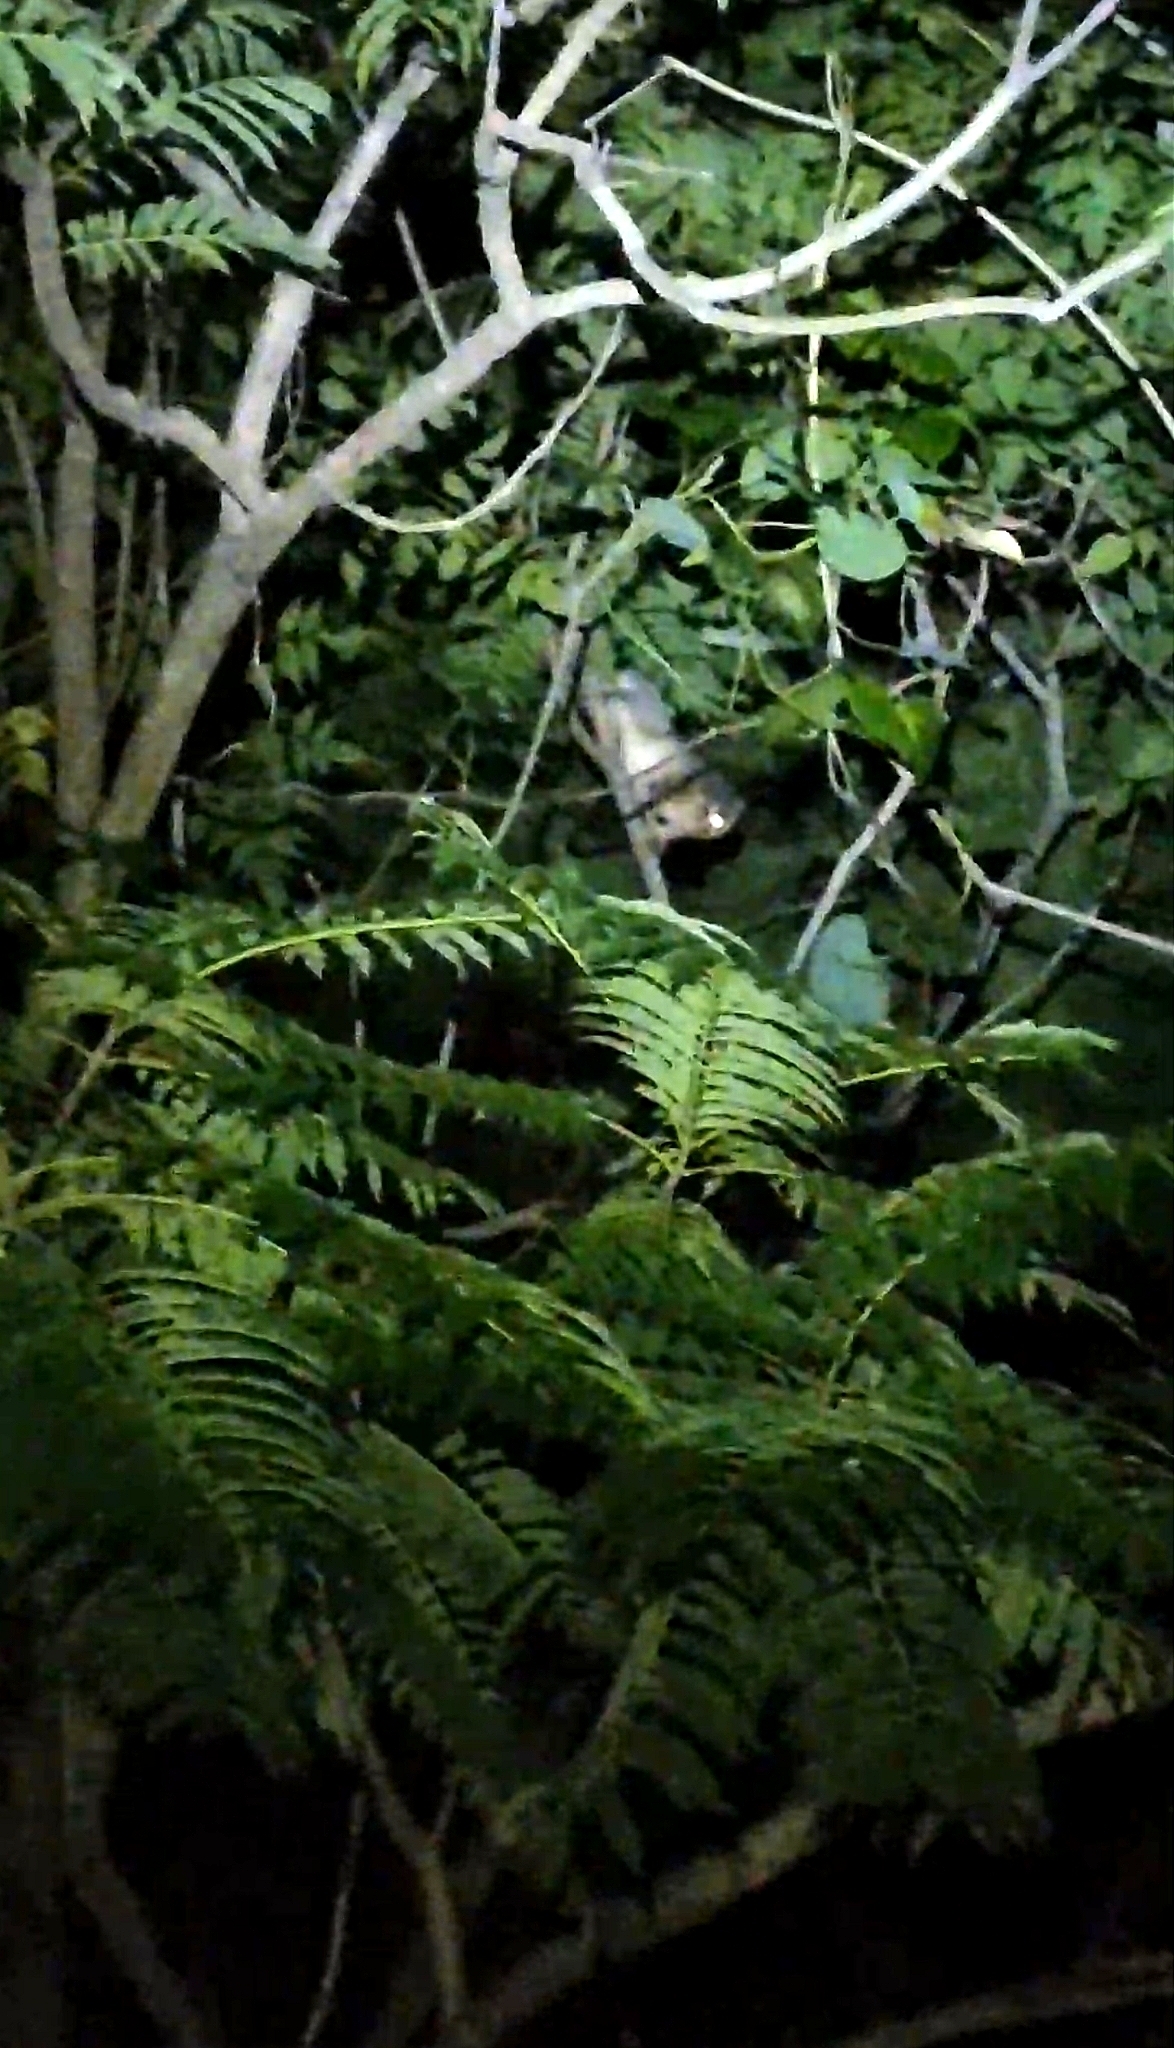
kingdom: Animalia
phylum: Chordata
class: Mammalia
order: Primates
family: Lorisidae
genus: Loris
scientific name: Loris lydekkerianus
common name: Gray slender loris
